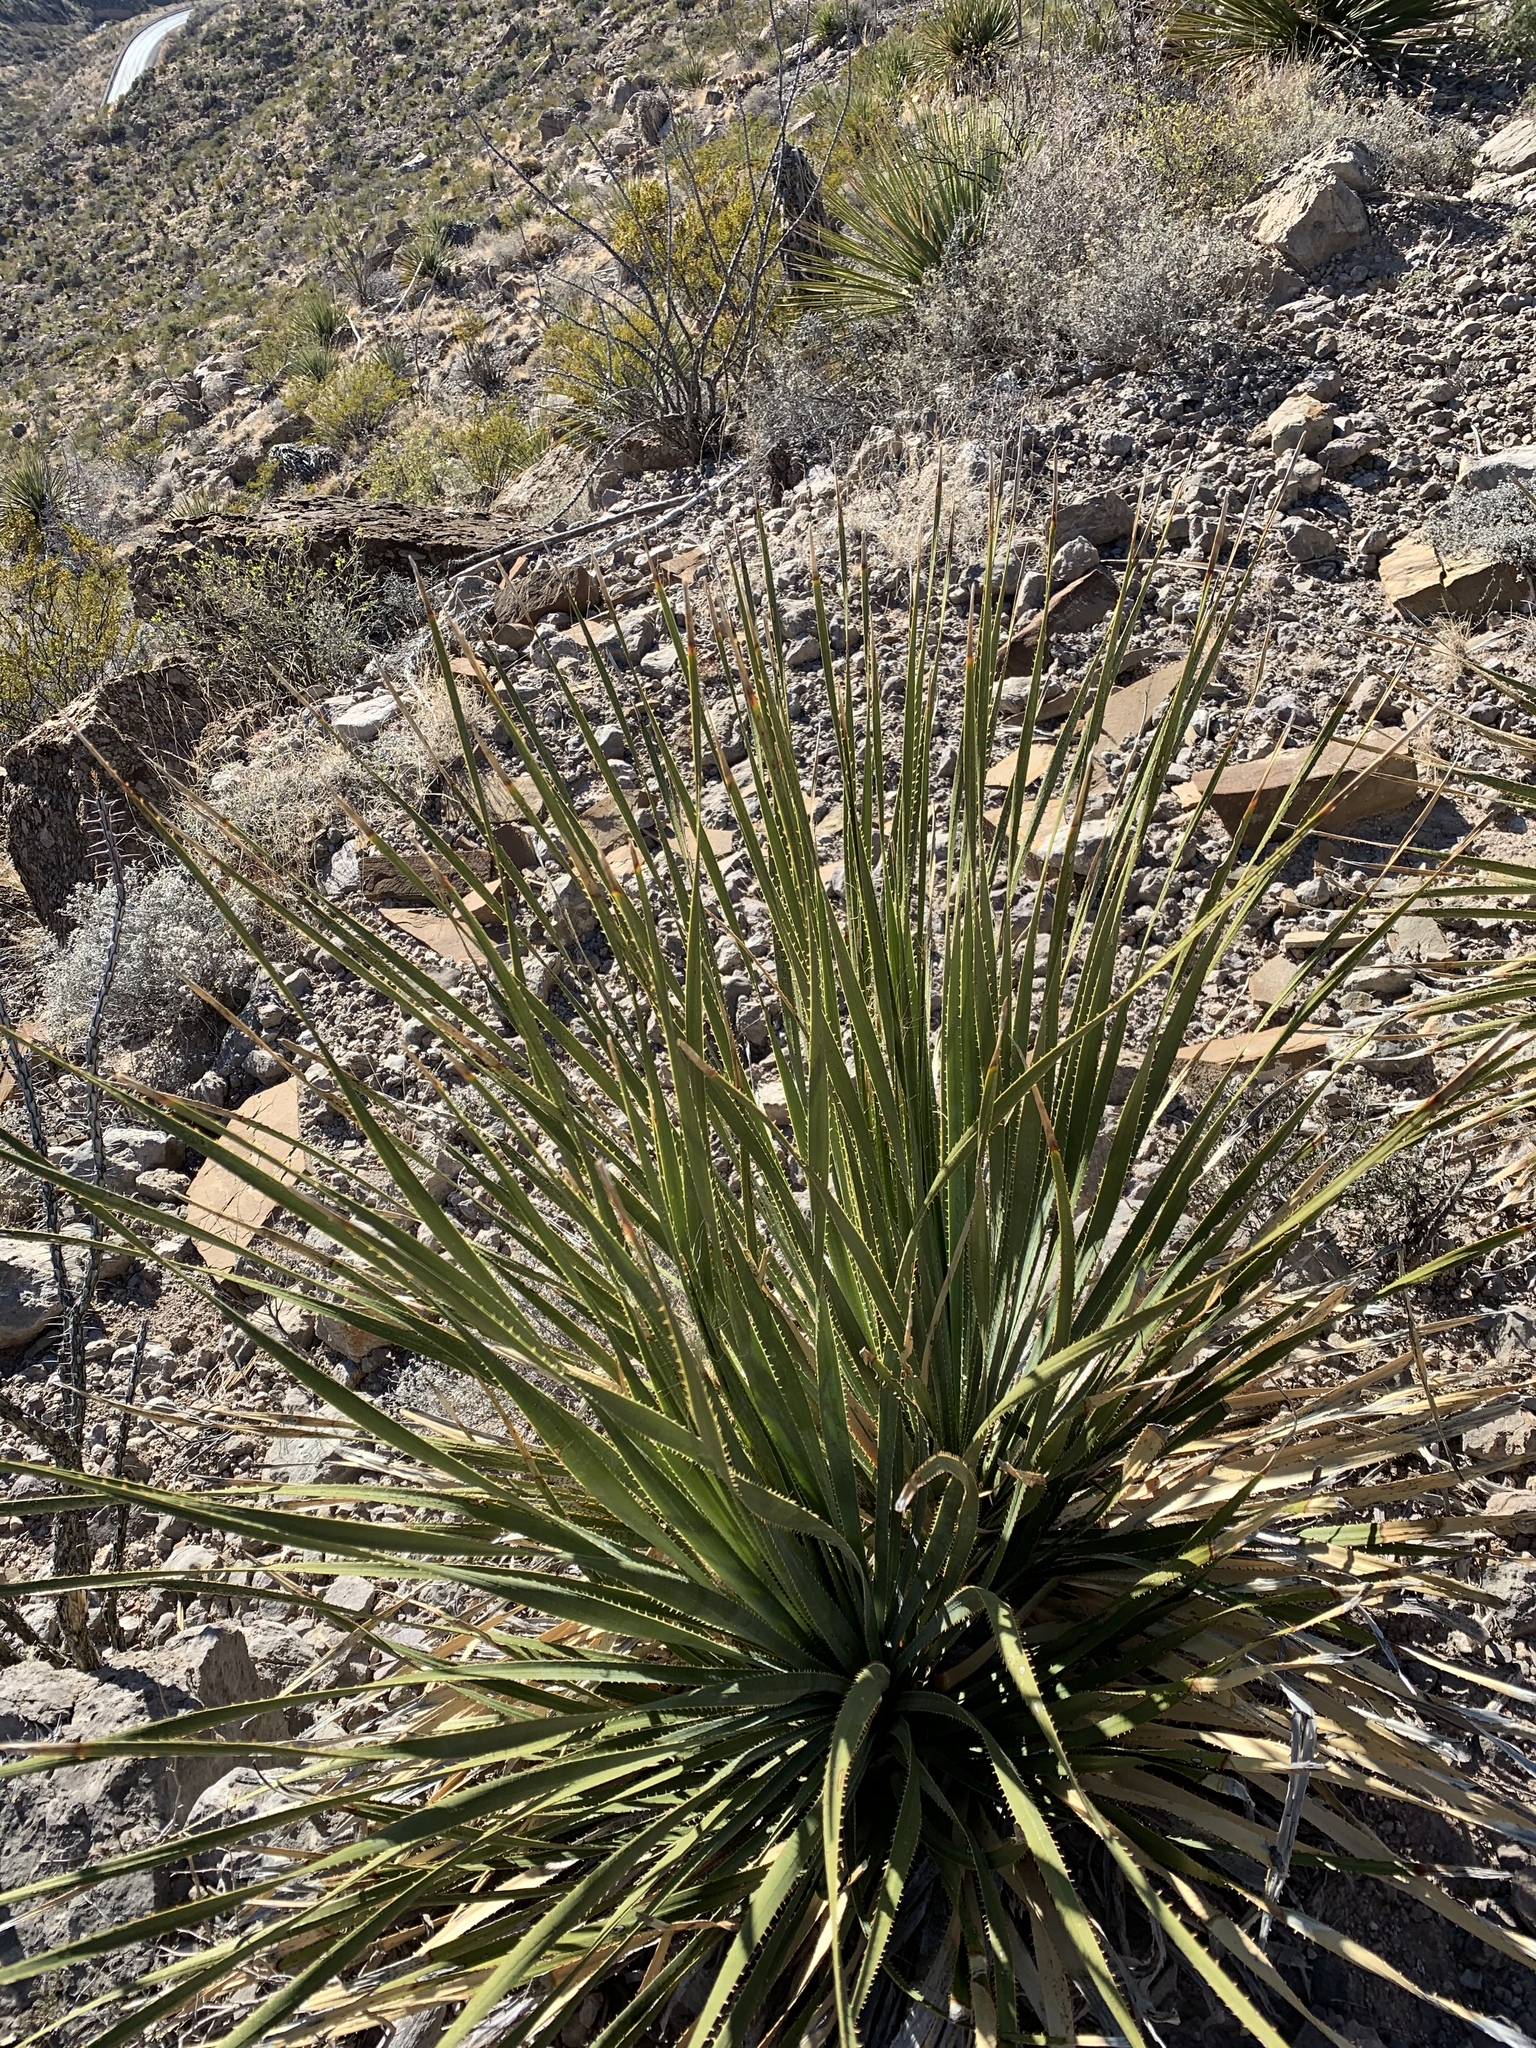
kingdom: Plantae
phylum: Tracheophyta
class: Liliopsida
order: Asparagales
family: Asparagaceae
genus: Dasylirion
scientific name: Dasylirion wheeleri
